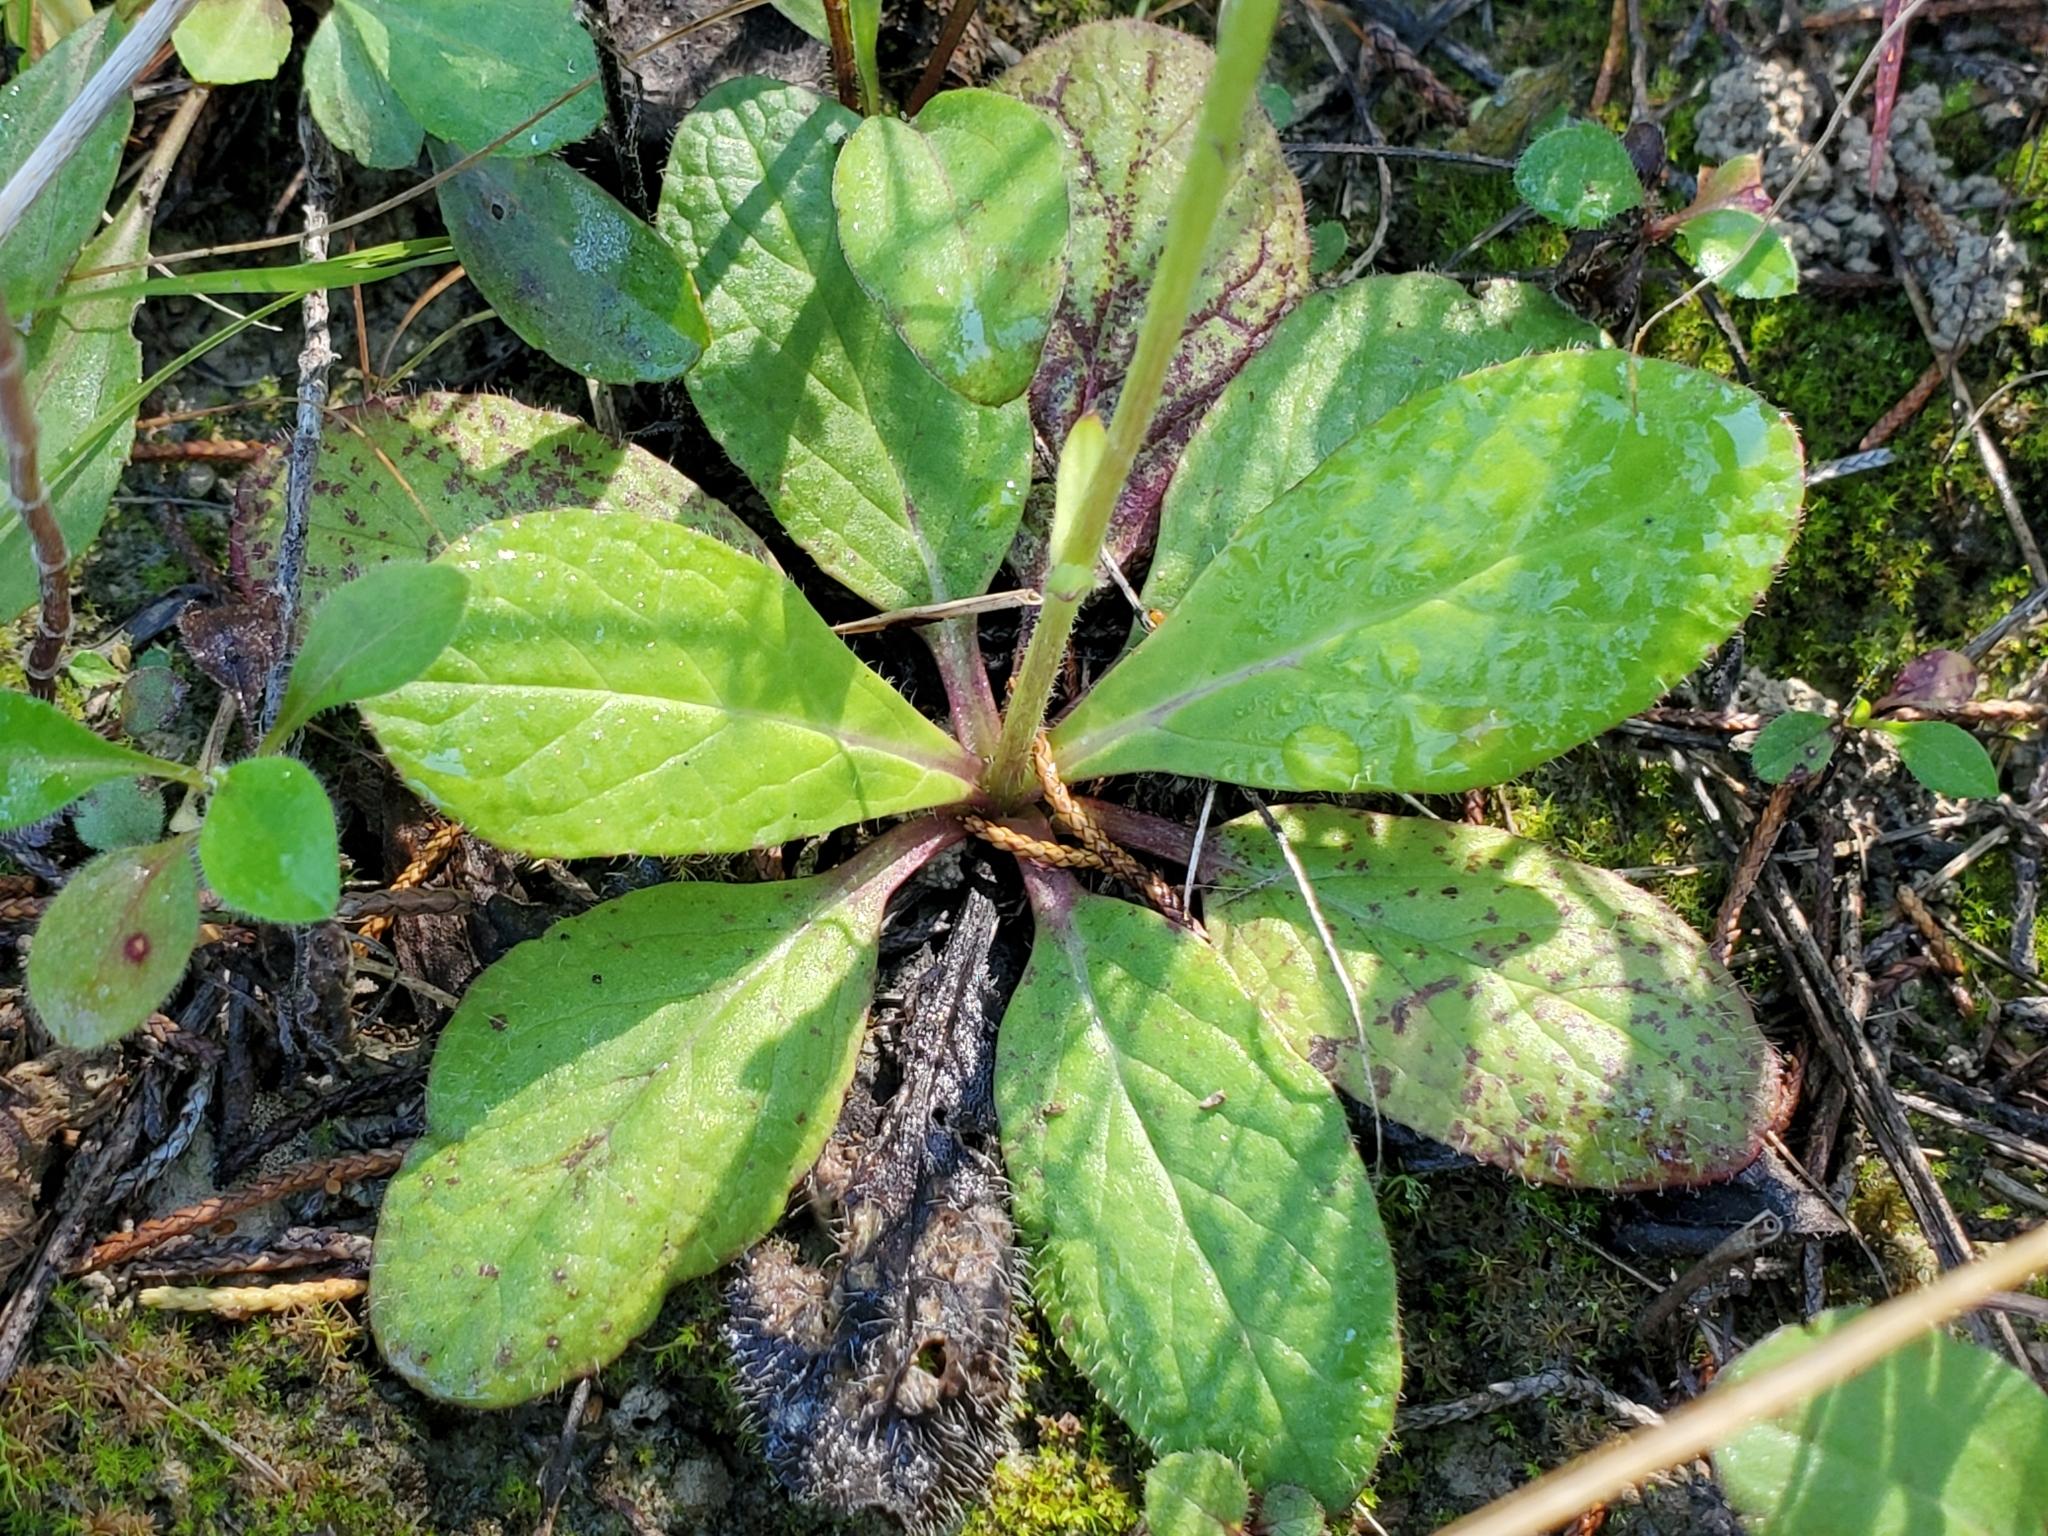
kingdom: Plantae
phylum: Tracheophyta
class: Magnoliopsida
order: Lamiales
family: Lamiaceae
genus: Salvia
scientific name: Salvia lyrata
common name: Cancerweed
